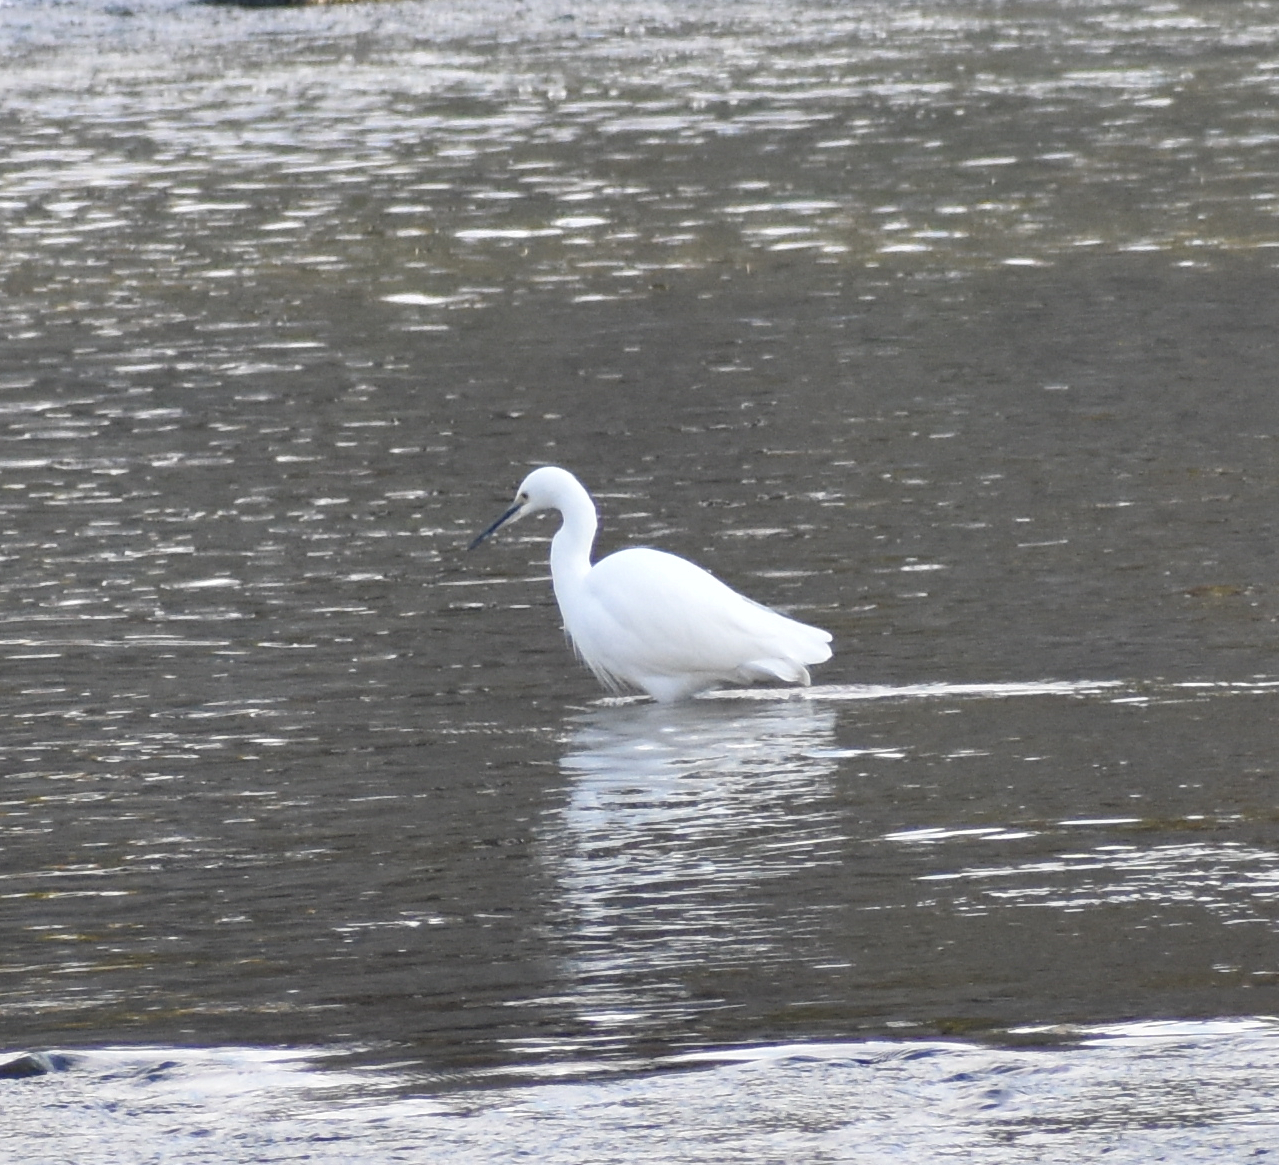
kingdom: Animalia
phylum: Chordata
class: Aves
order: Pelecaniformes
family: Ardeidae
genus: Egretta
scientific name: Egretta garzetta
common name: Little egret
